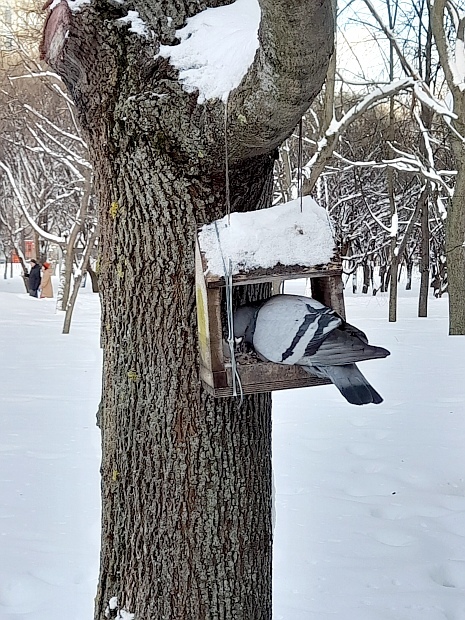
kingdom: Animalia
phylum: Chordata
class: Aves
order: Columbiformes
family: Columbidae
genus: Columba
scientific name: Columba livia
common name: Rock pigeon
